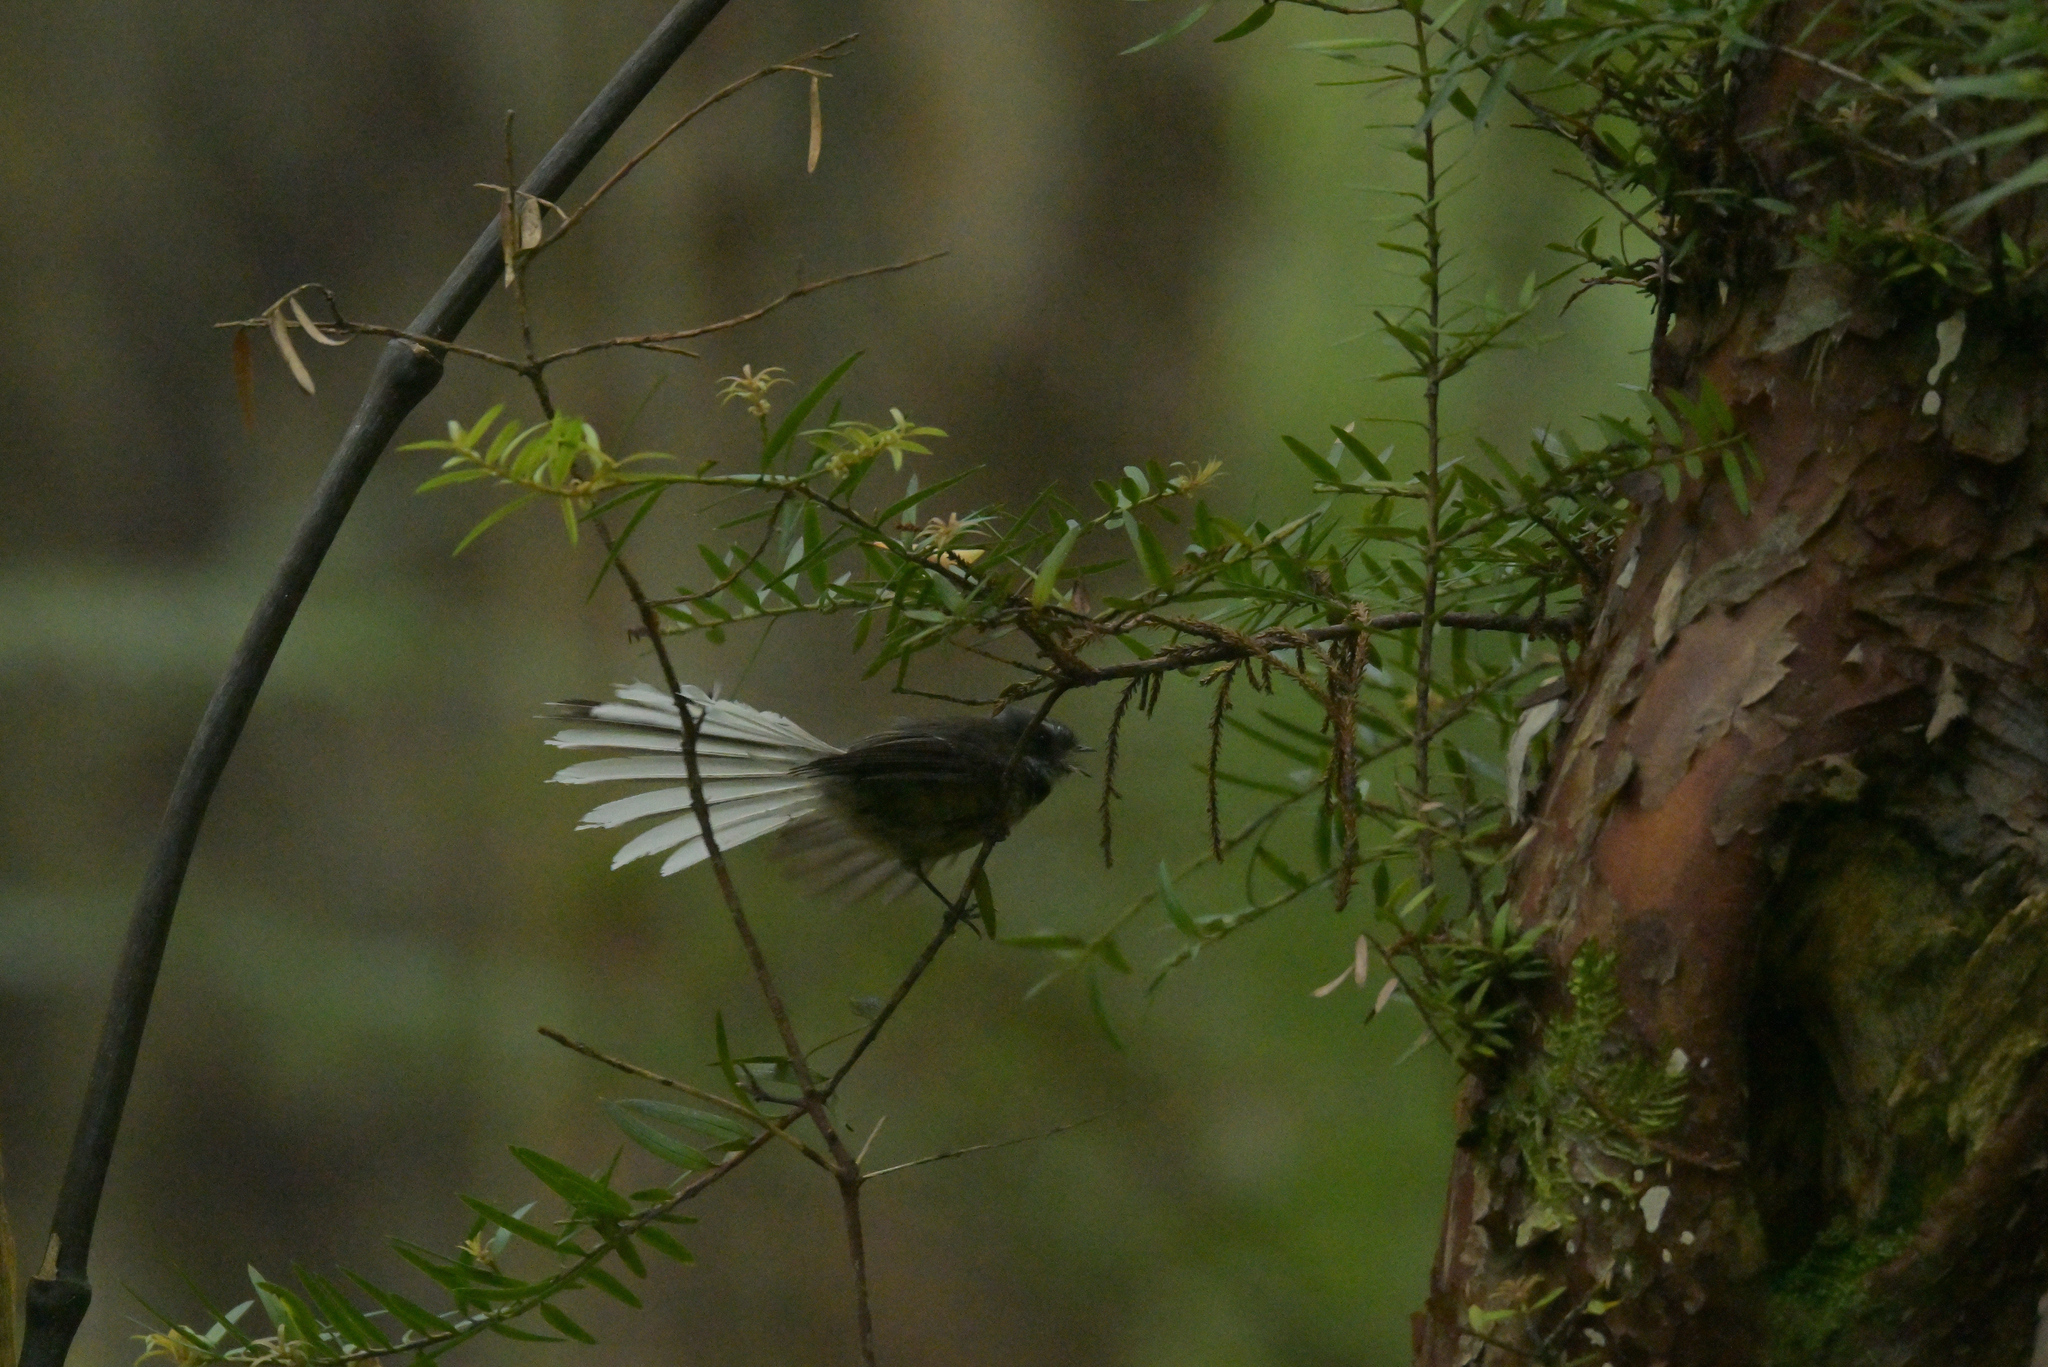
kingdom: Animalia
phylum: Chordata
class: Aves
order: Passeriformes
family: Rhipiduridae
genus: Rhipidura
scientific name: Rhipidura fuliginosa
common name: New zealand fantail
